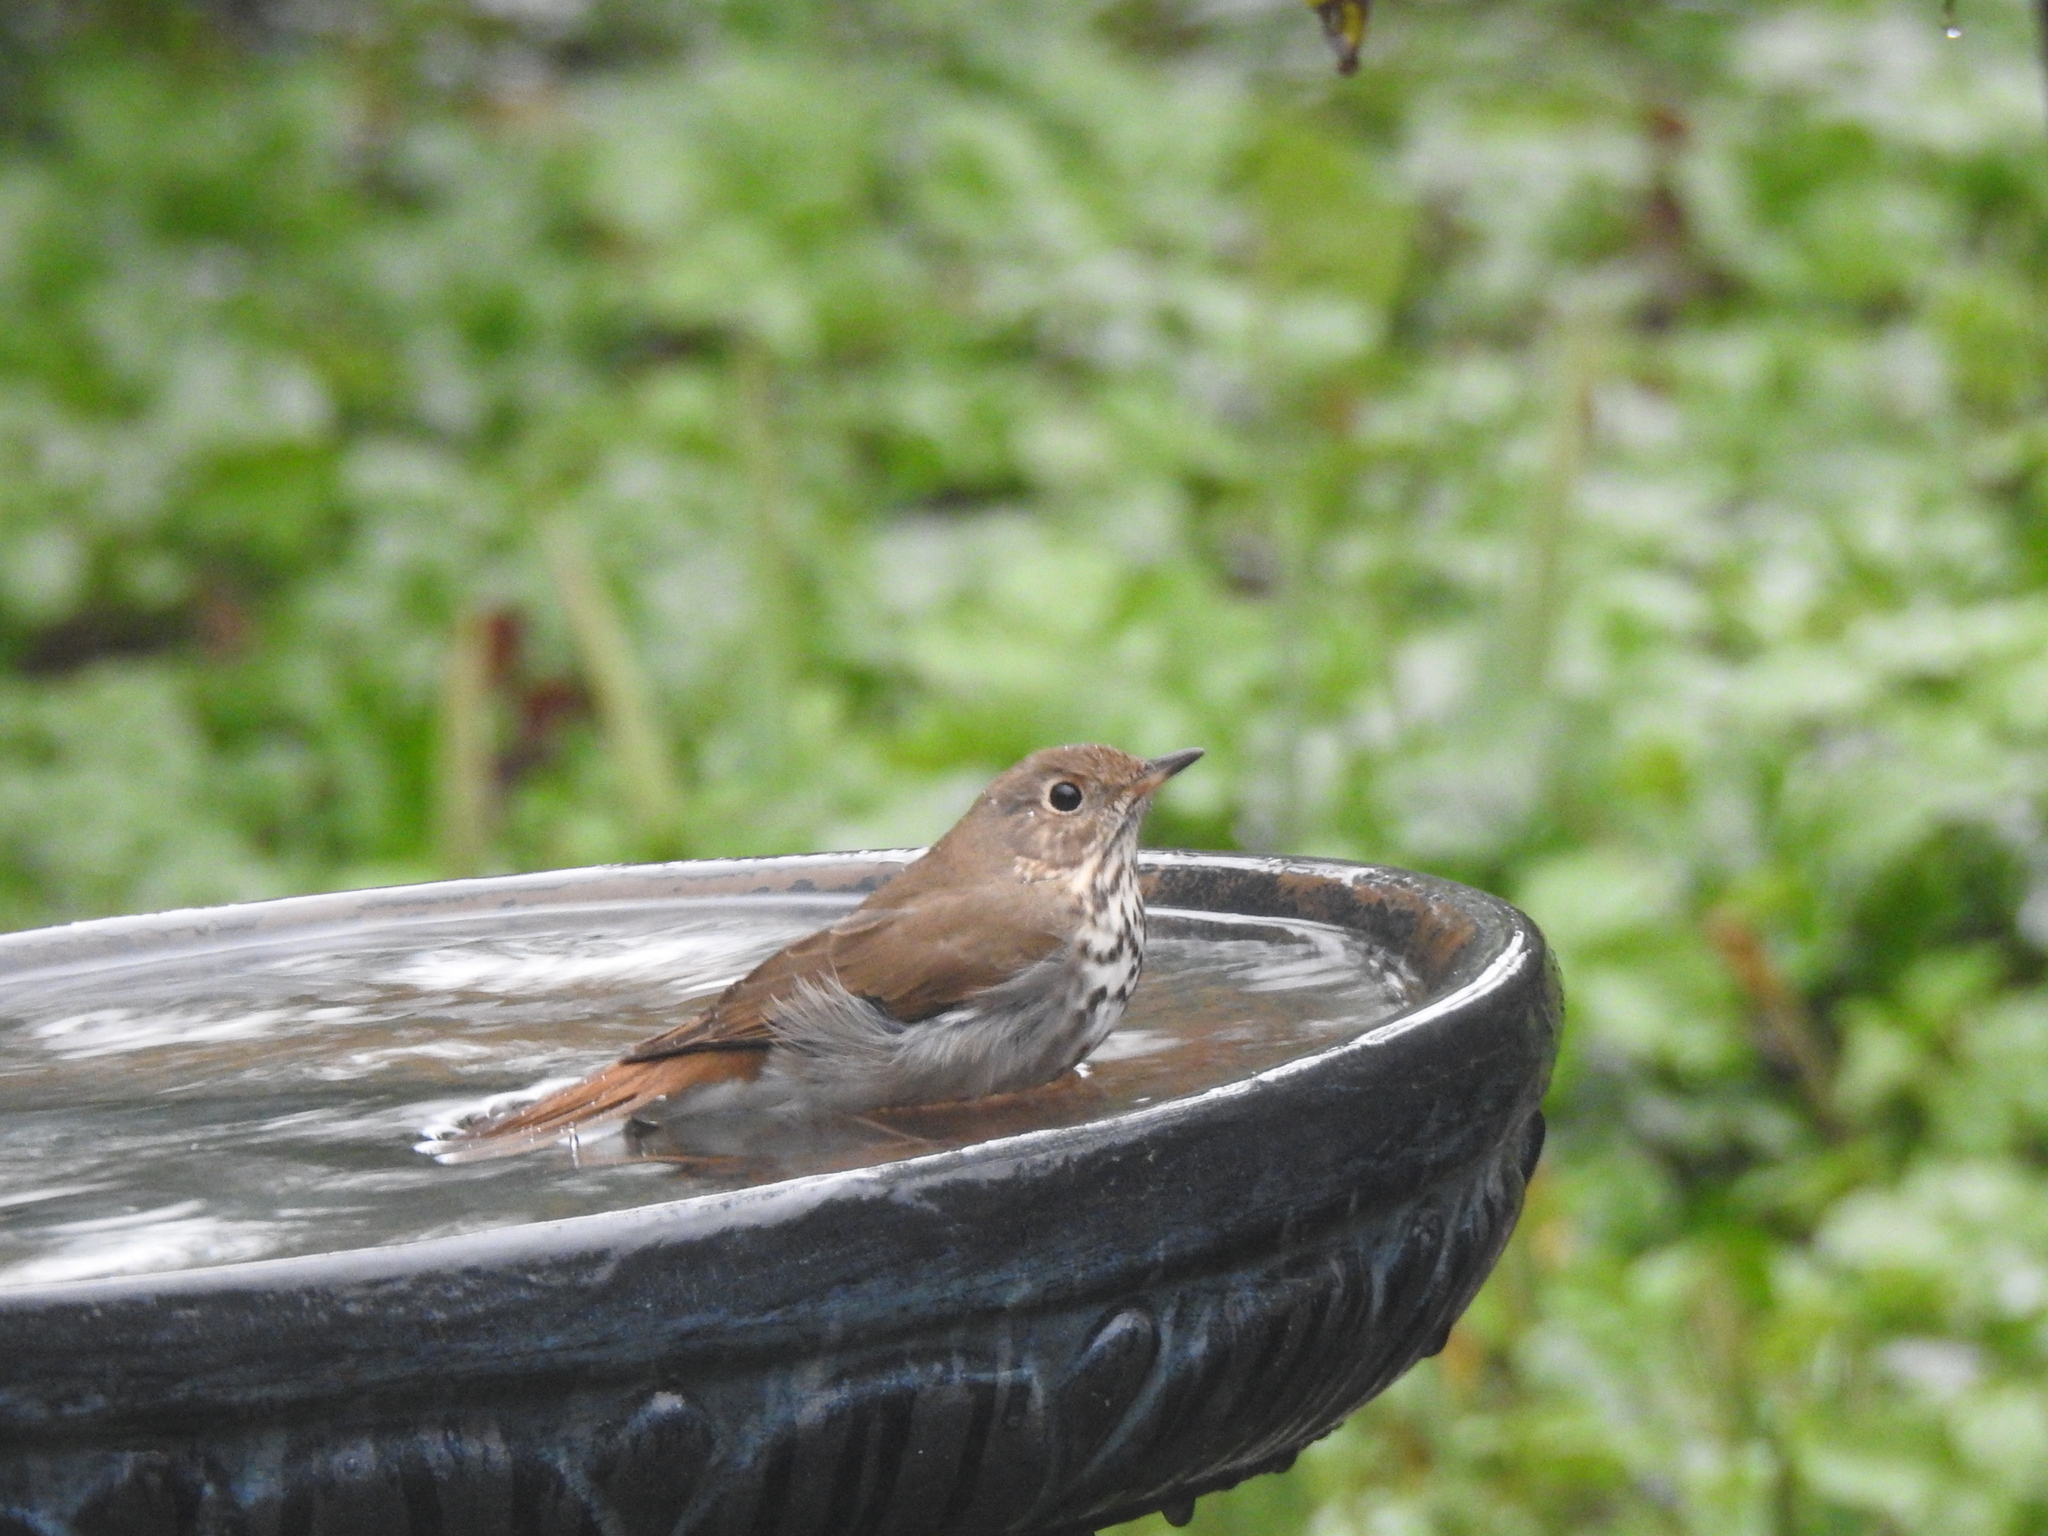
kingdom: Animalia
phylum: Chordata
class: Aves
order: Passeriformes
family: Turdidae
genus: Catharus
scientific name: Catharus guttatus
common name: Hermit thrush
